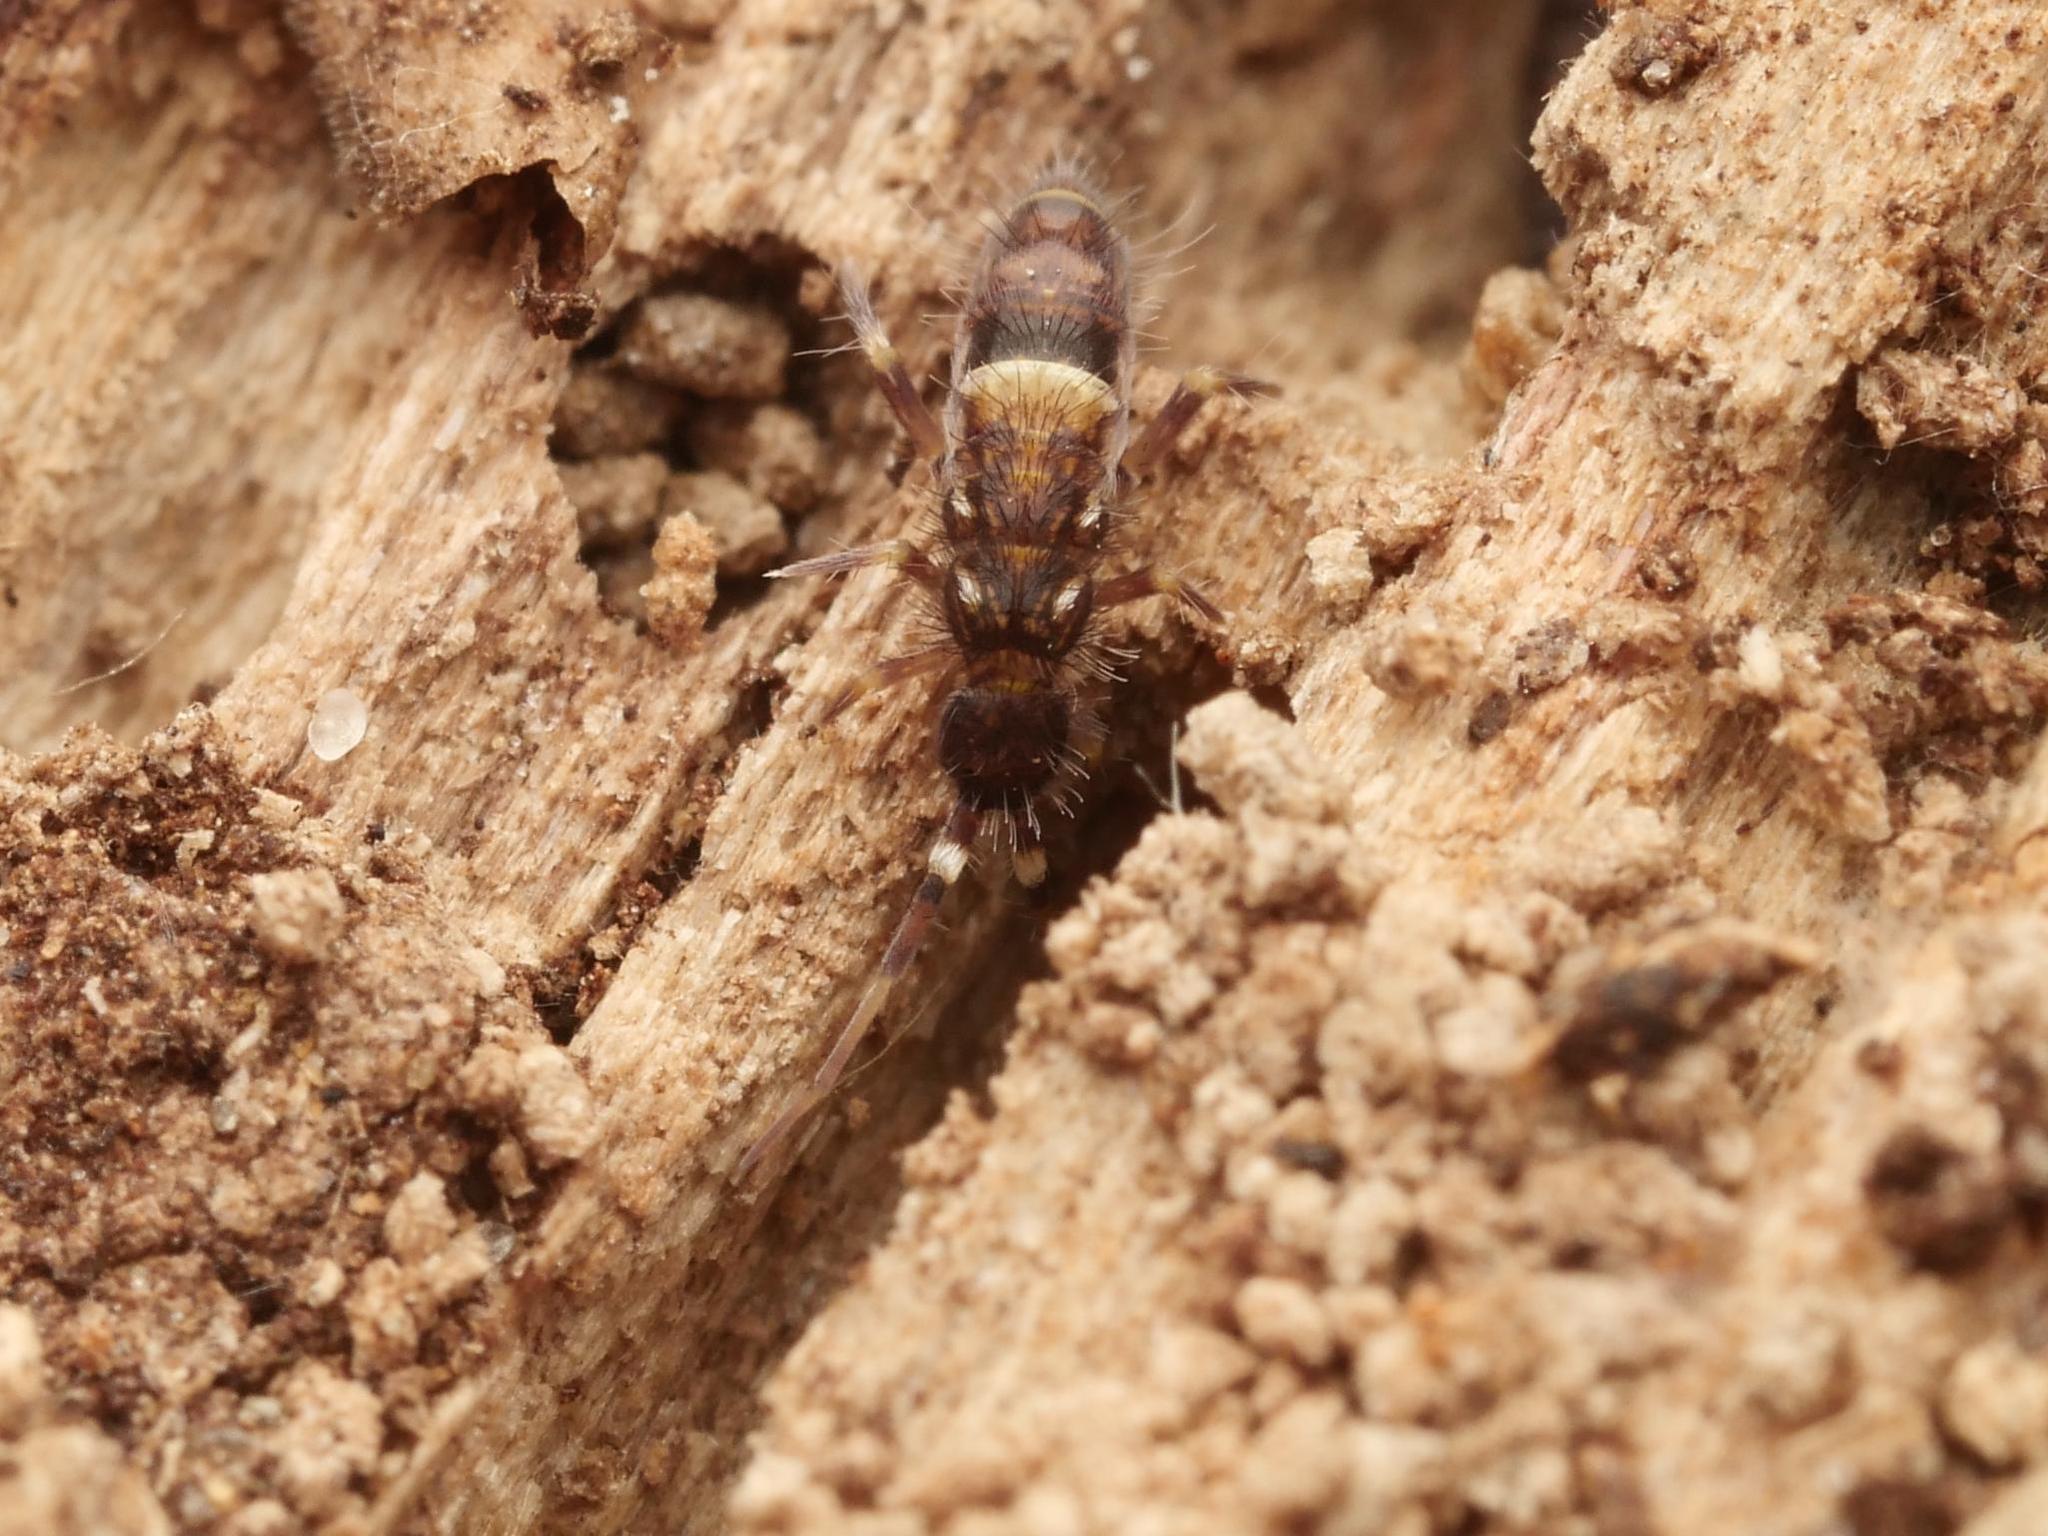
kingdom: Animalia
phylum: Arthropoda
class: Collembola
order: Entomobryomorpha
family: Orchesellidae
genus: Orchesella
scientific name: Orchesella cincta
